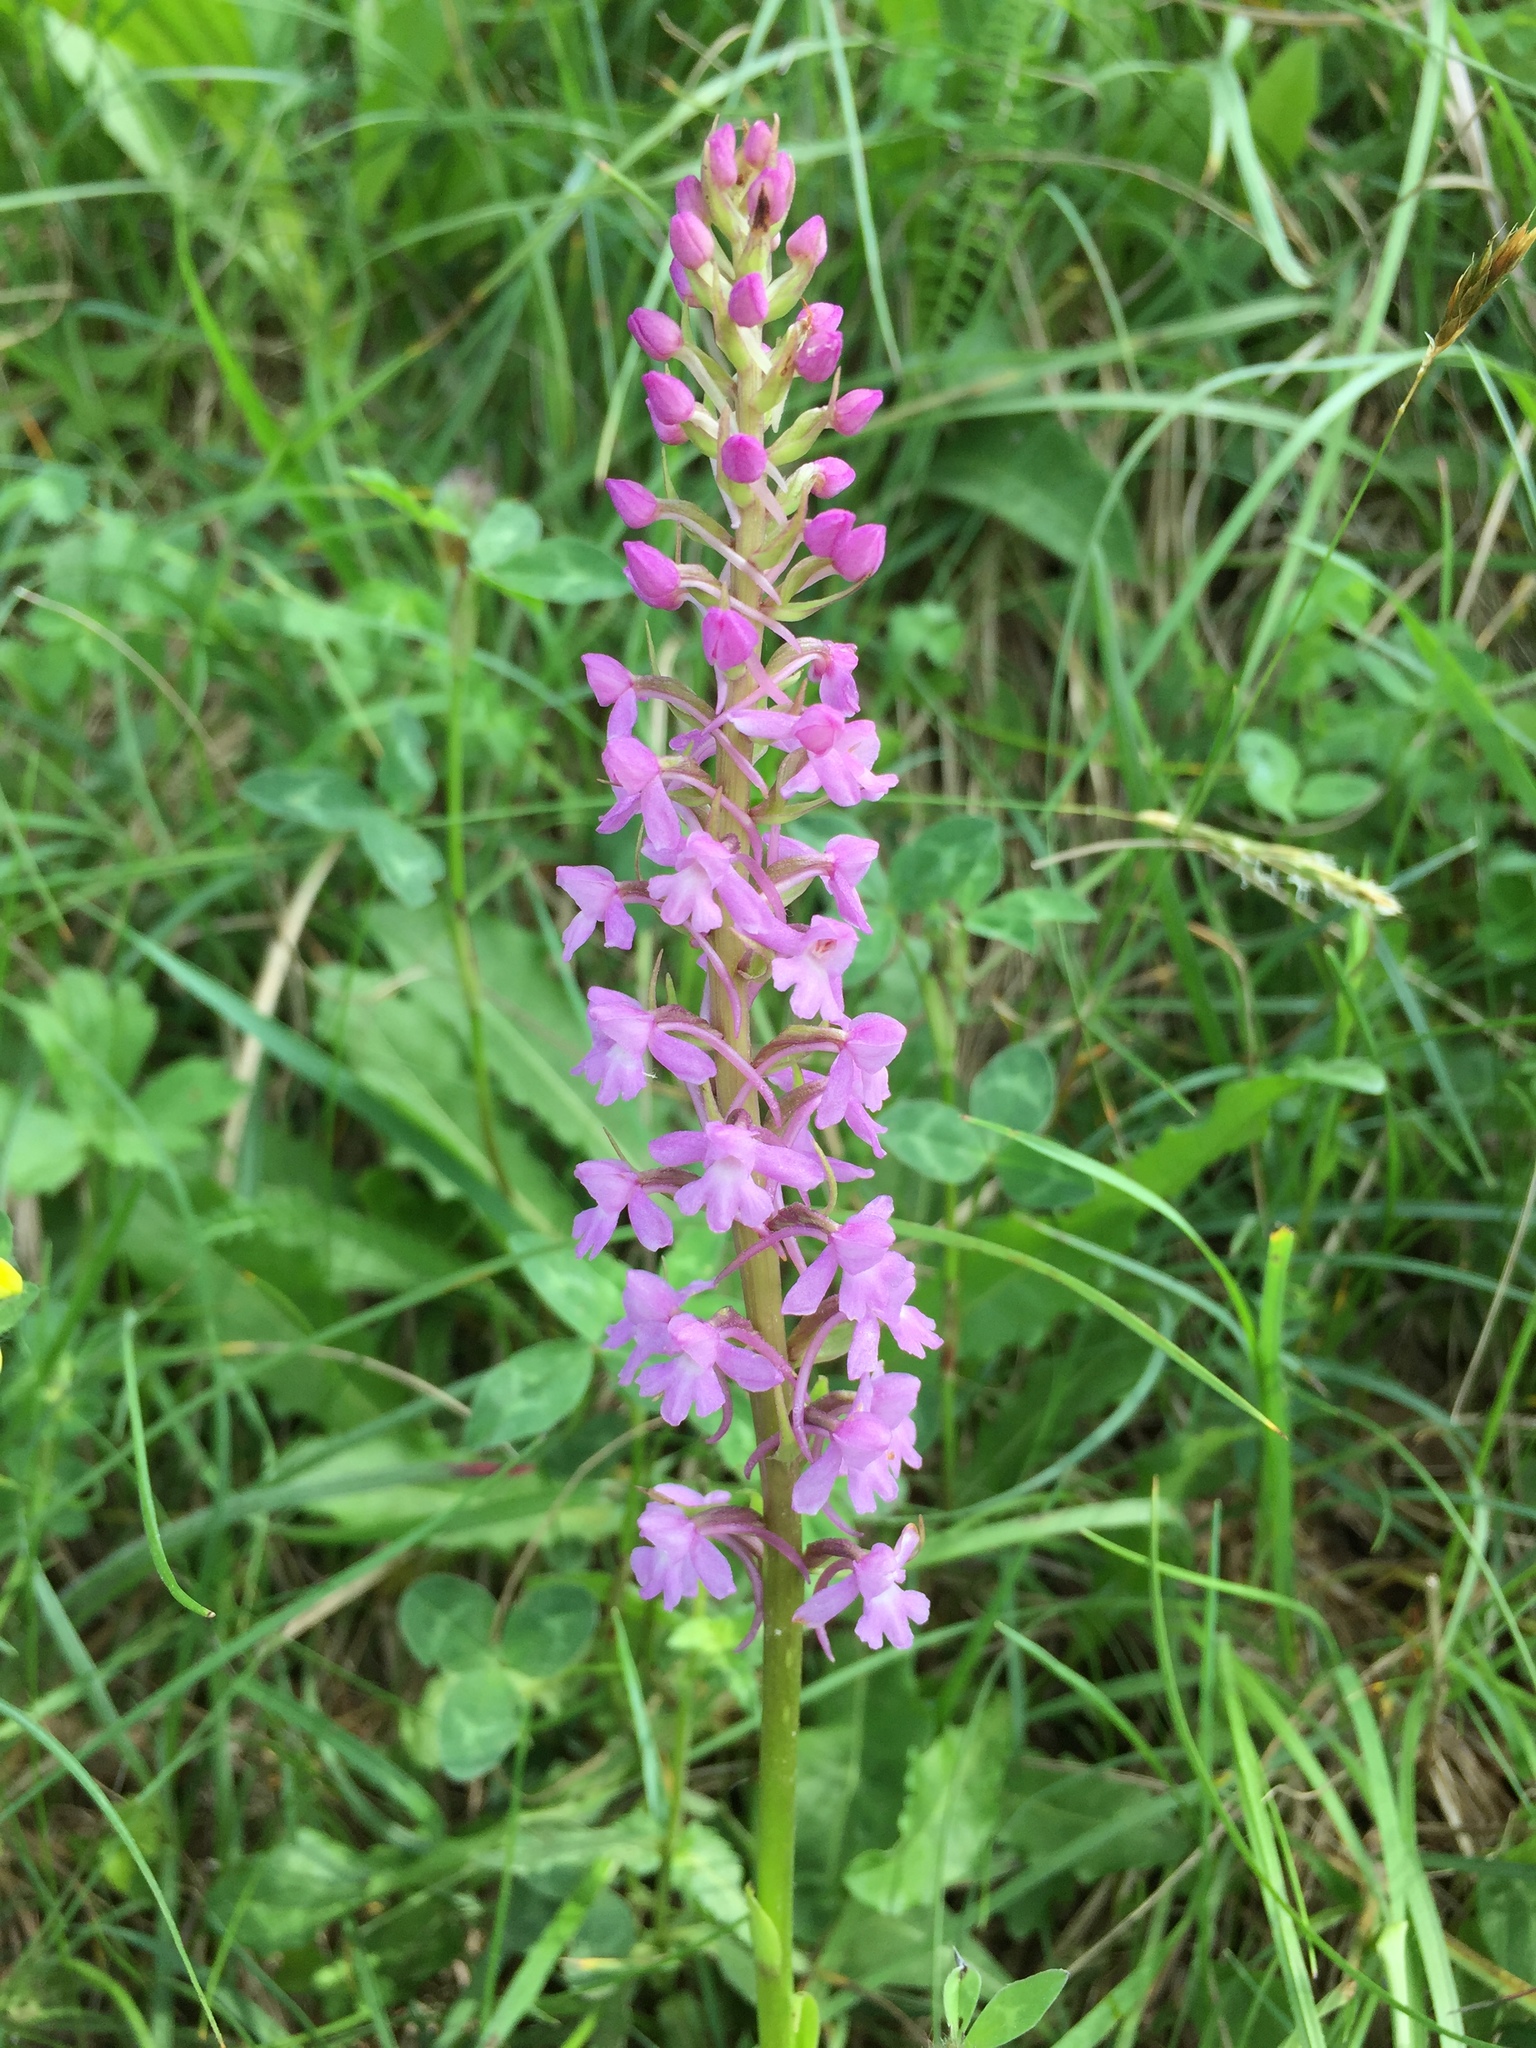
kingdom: Plantae
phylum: Tracheophyta
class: Liliopsida
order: Asparagales
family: Orchidaceae
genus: Gymnadenia
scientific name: Gymnadenia conopsea
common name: Fragrant orchid
